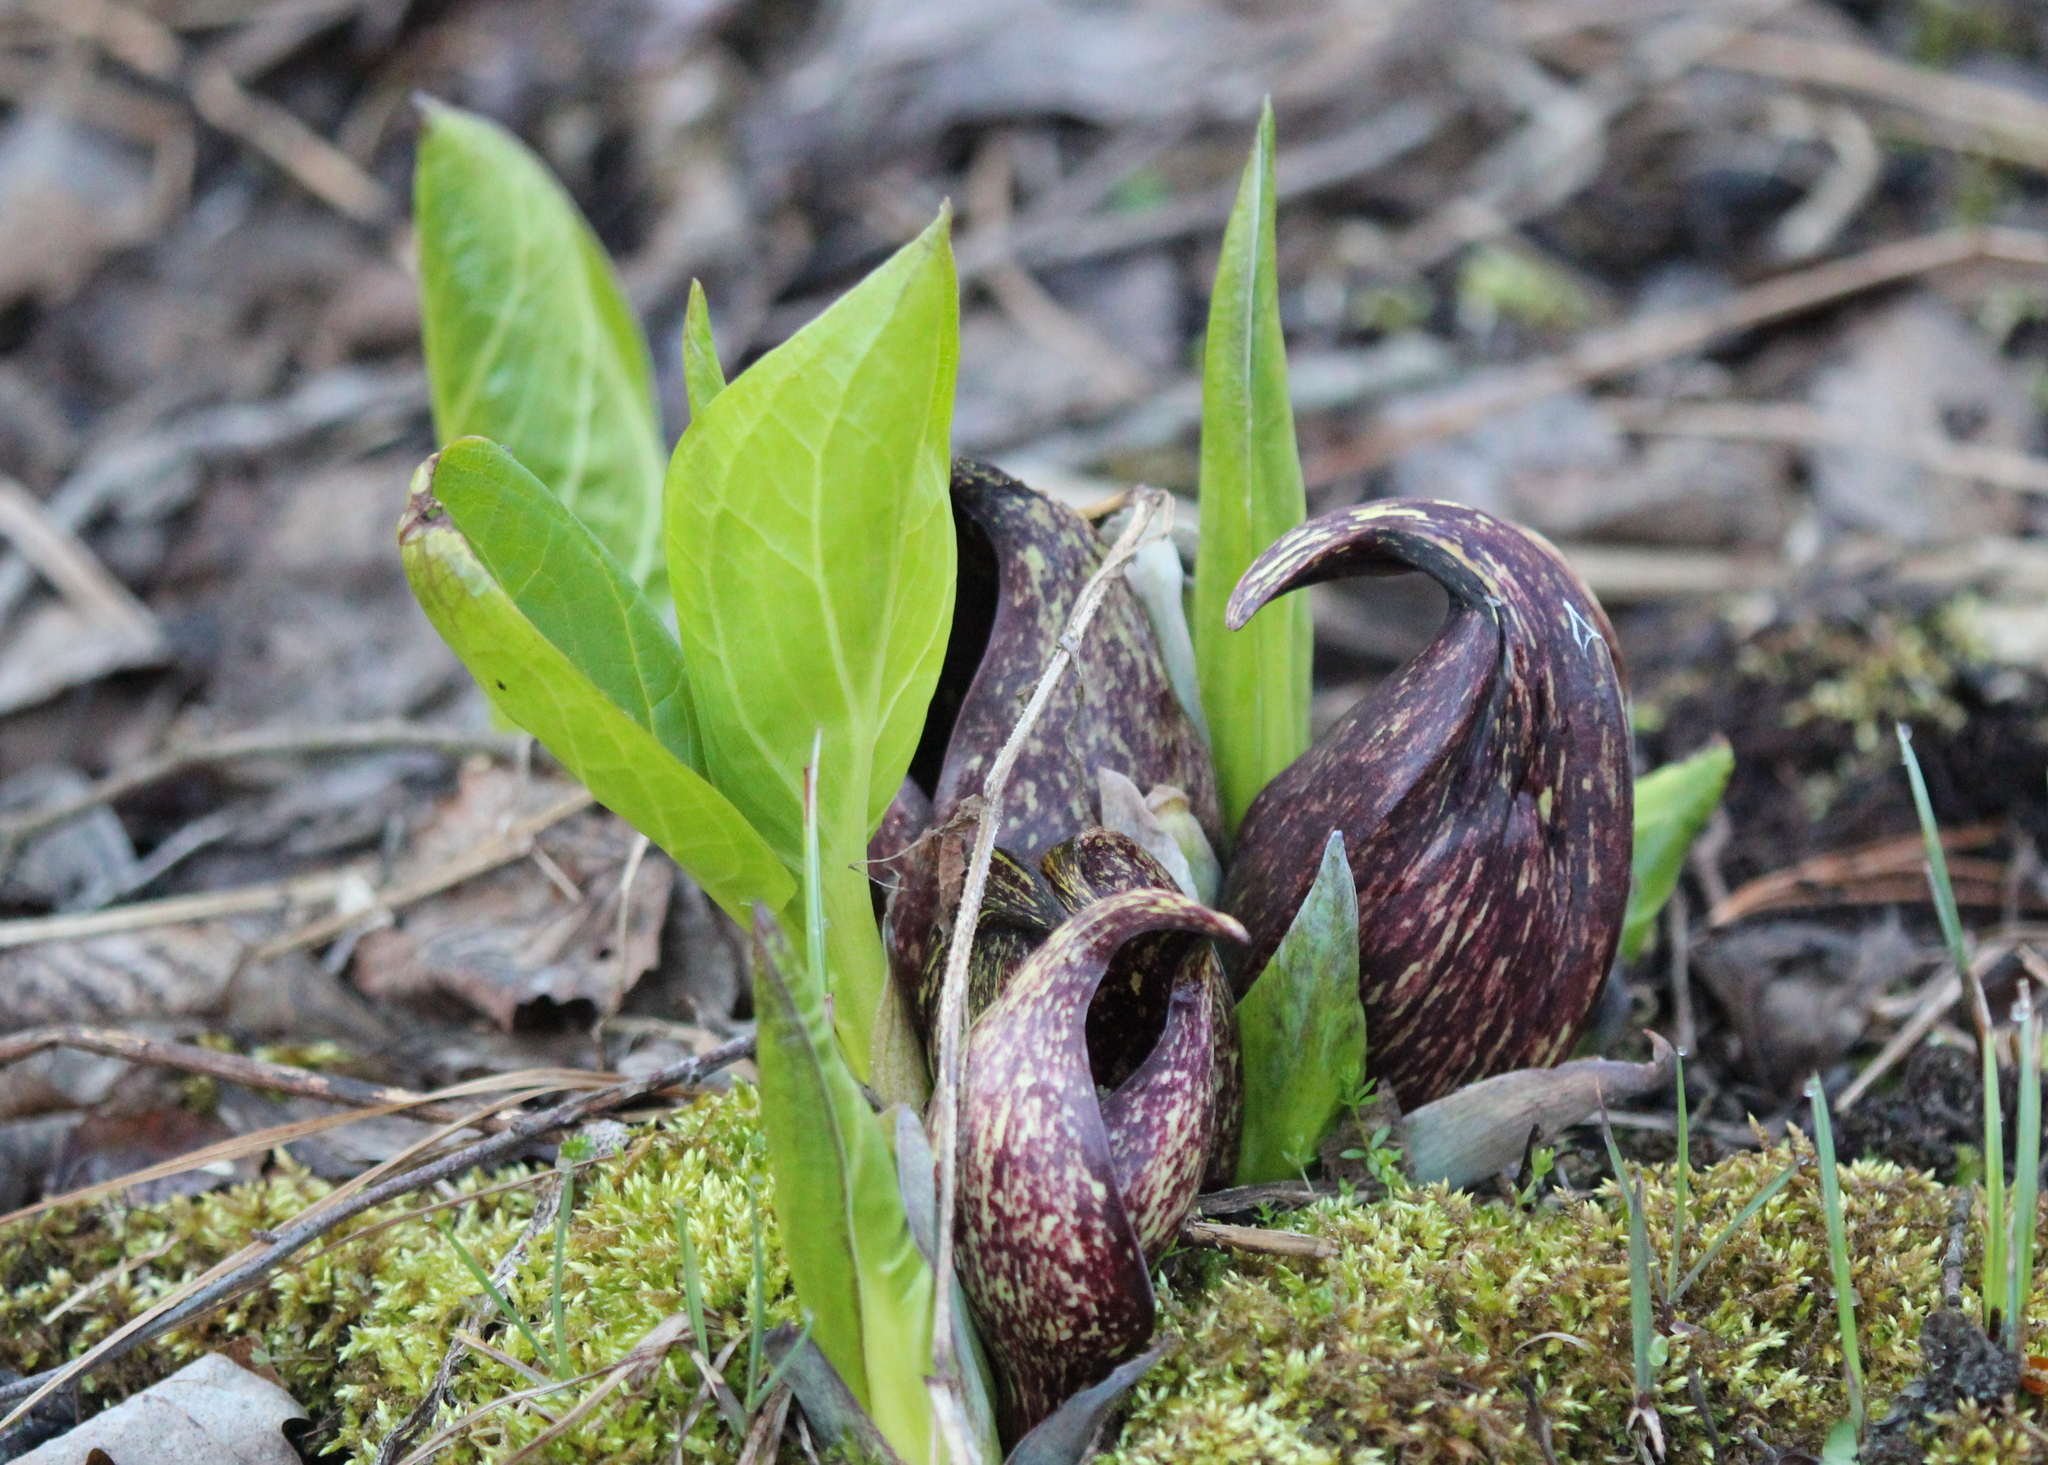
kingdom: Plantae
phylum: Tracheophyta
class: Liliopsida
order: Alismatales
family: Araceae
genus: Symplocarpus
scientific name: Symplocarpus foetidus
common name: Eastern skunk cabbage
